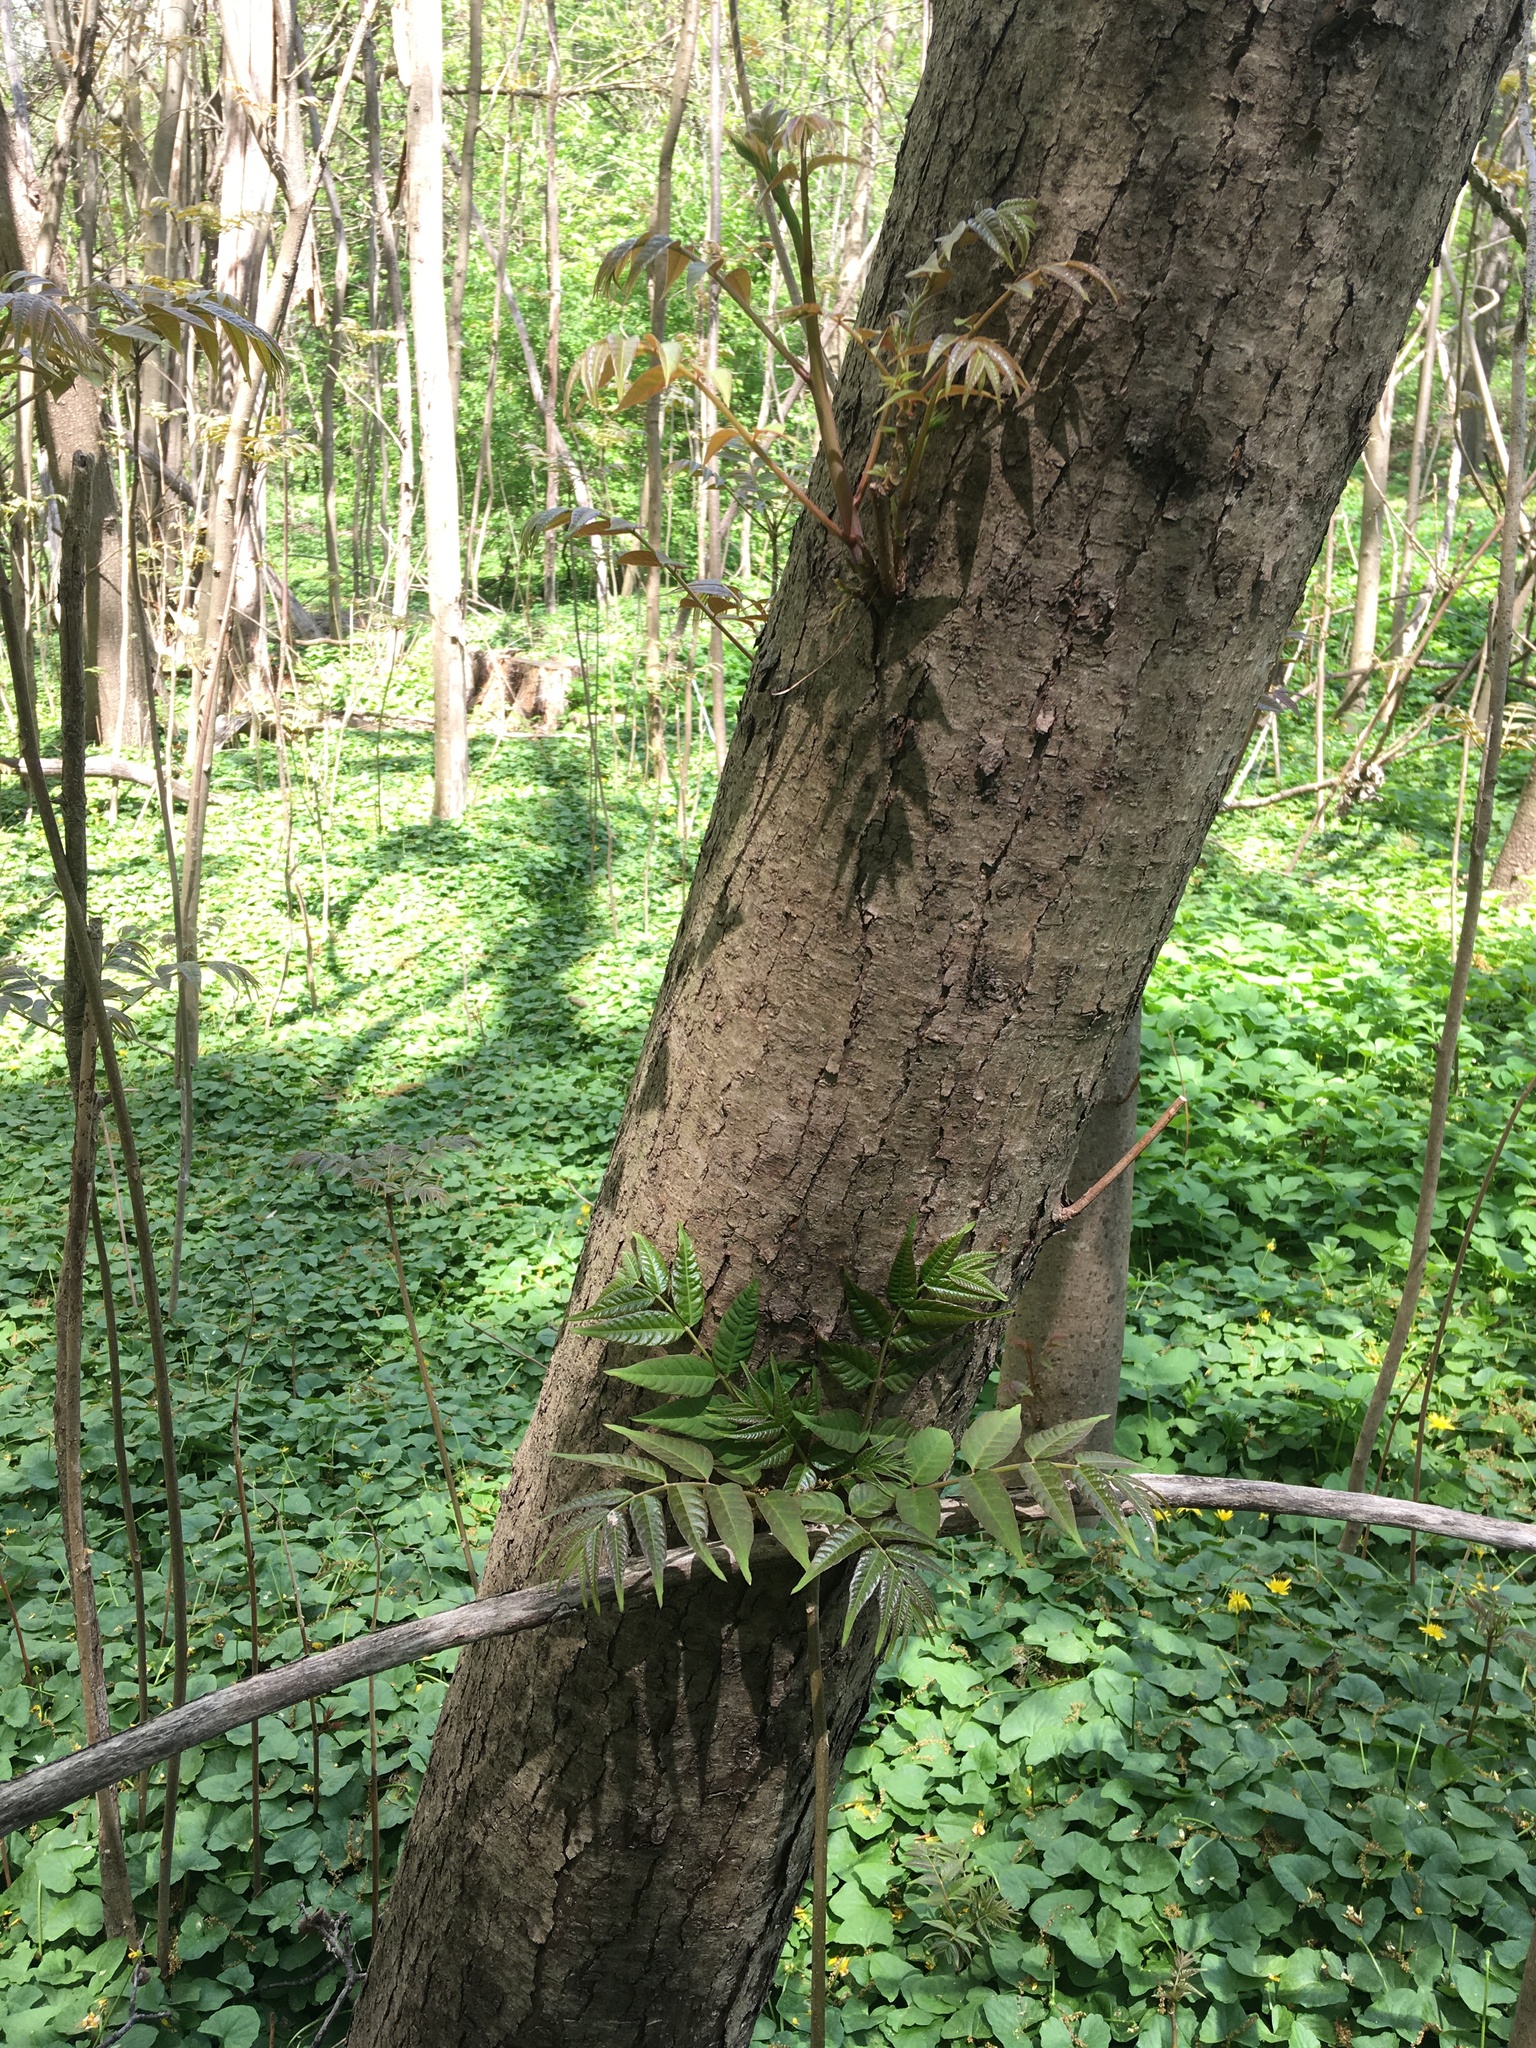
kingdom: Plantae
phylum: Tracheophyta
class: Magnoliopsida
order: Sapindales
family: Meliaceae
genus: Toona
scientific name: Toona sinensis
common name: Red toon
